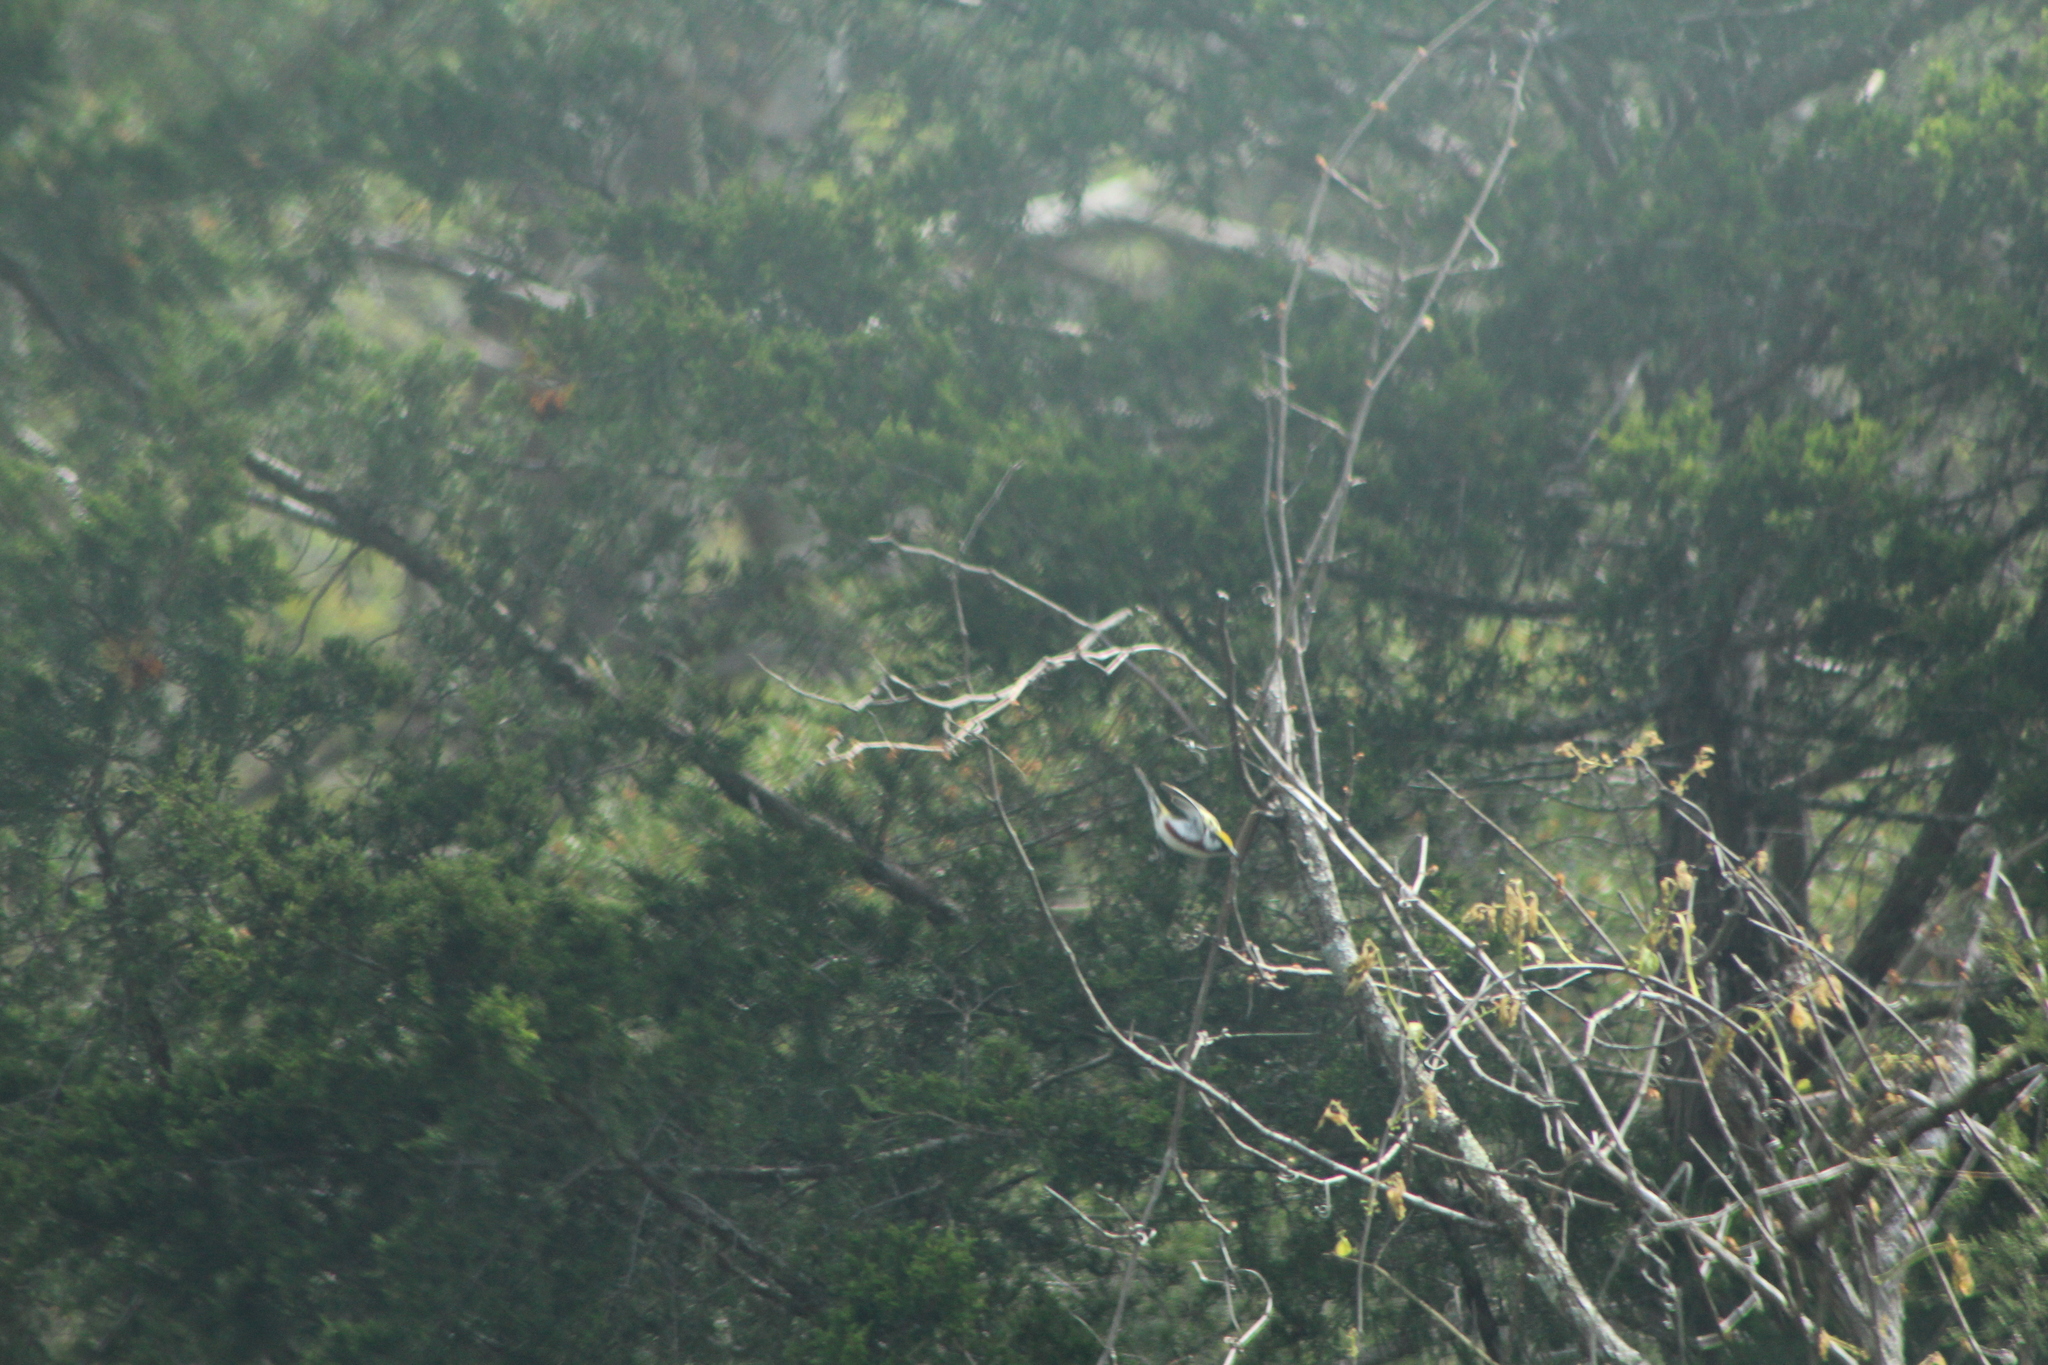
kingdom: Animalia
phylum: Chordata
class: Aves
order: Passeriformes
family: Parulidae
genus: Setophaga
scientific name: Setophaga pensylvanica
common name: Chestnut-sided warbler
